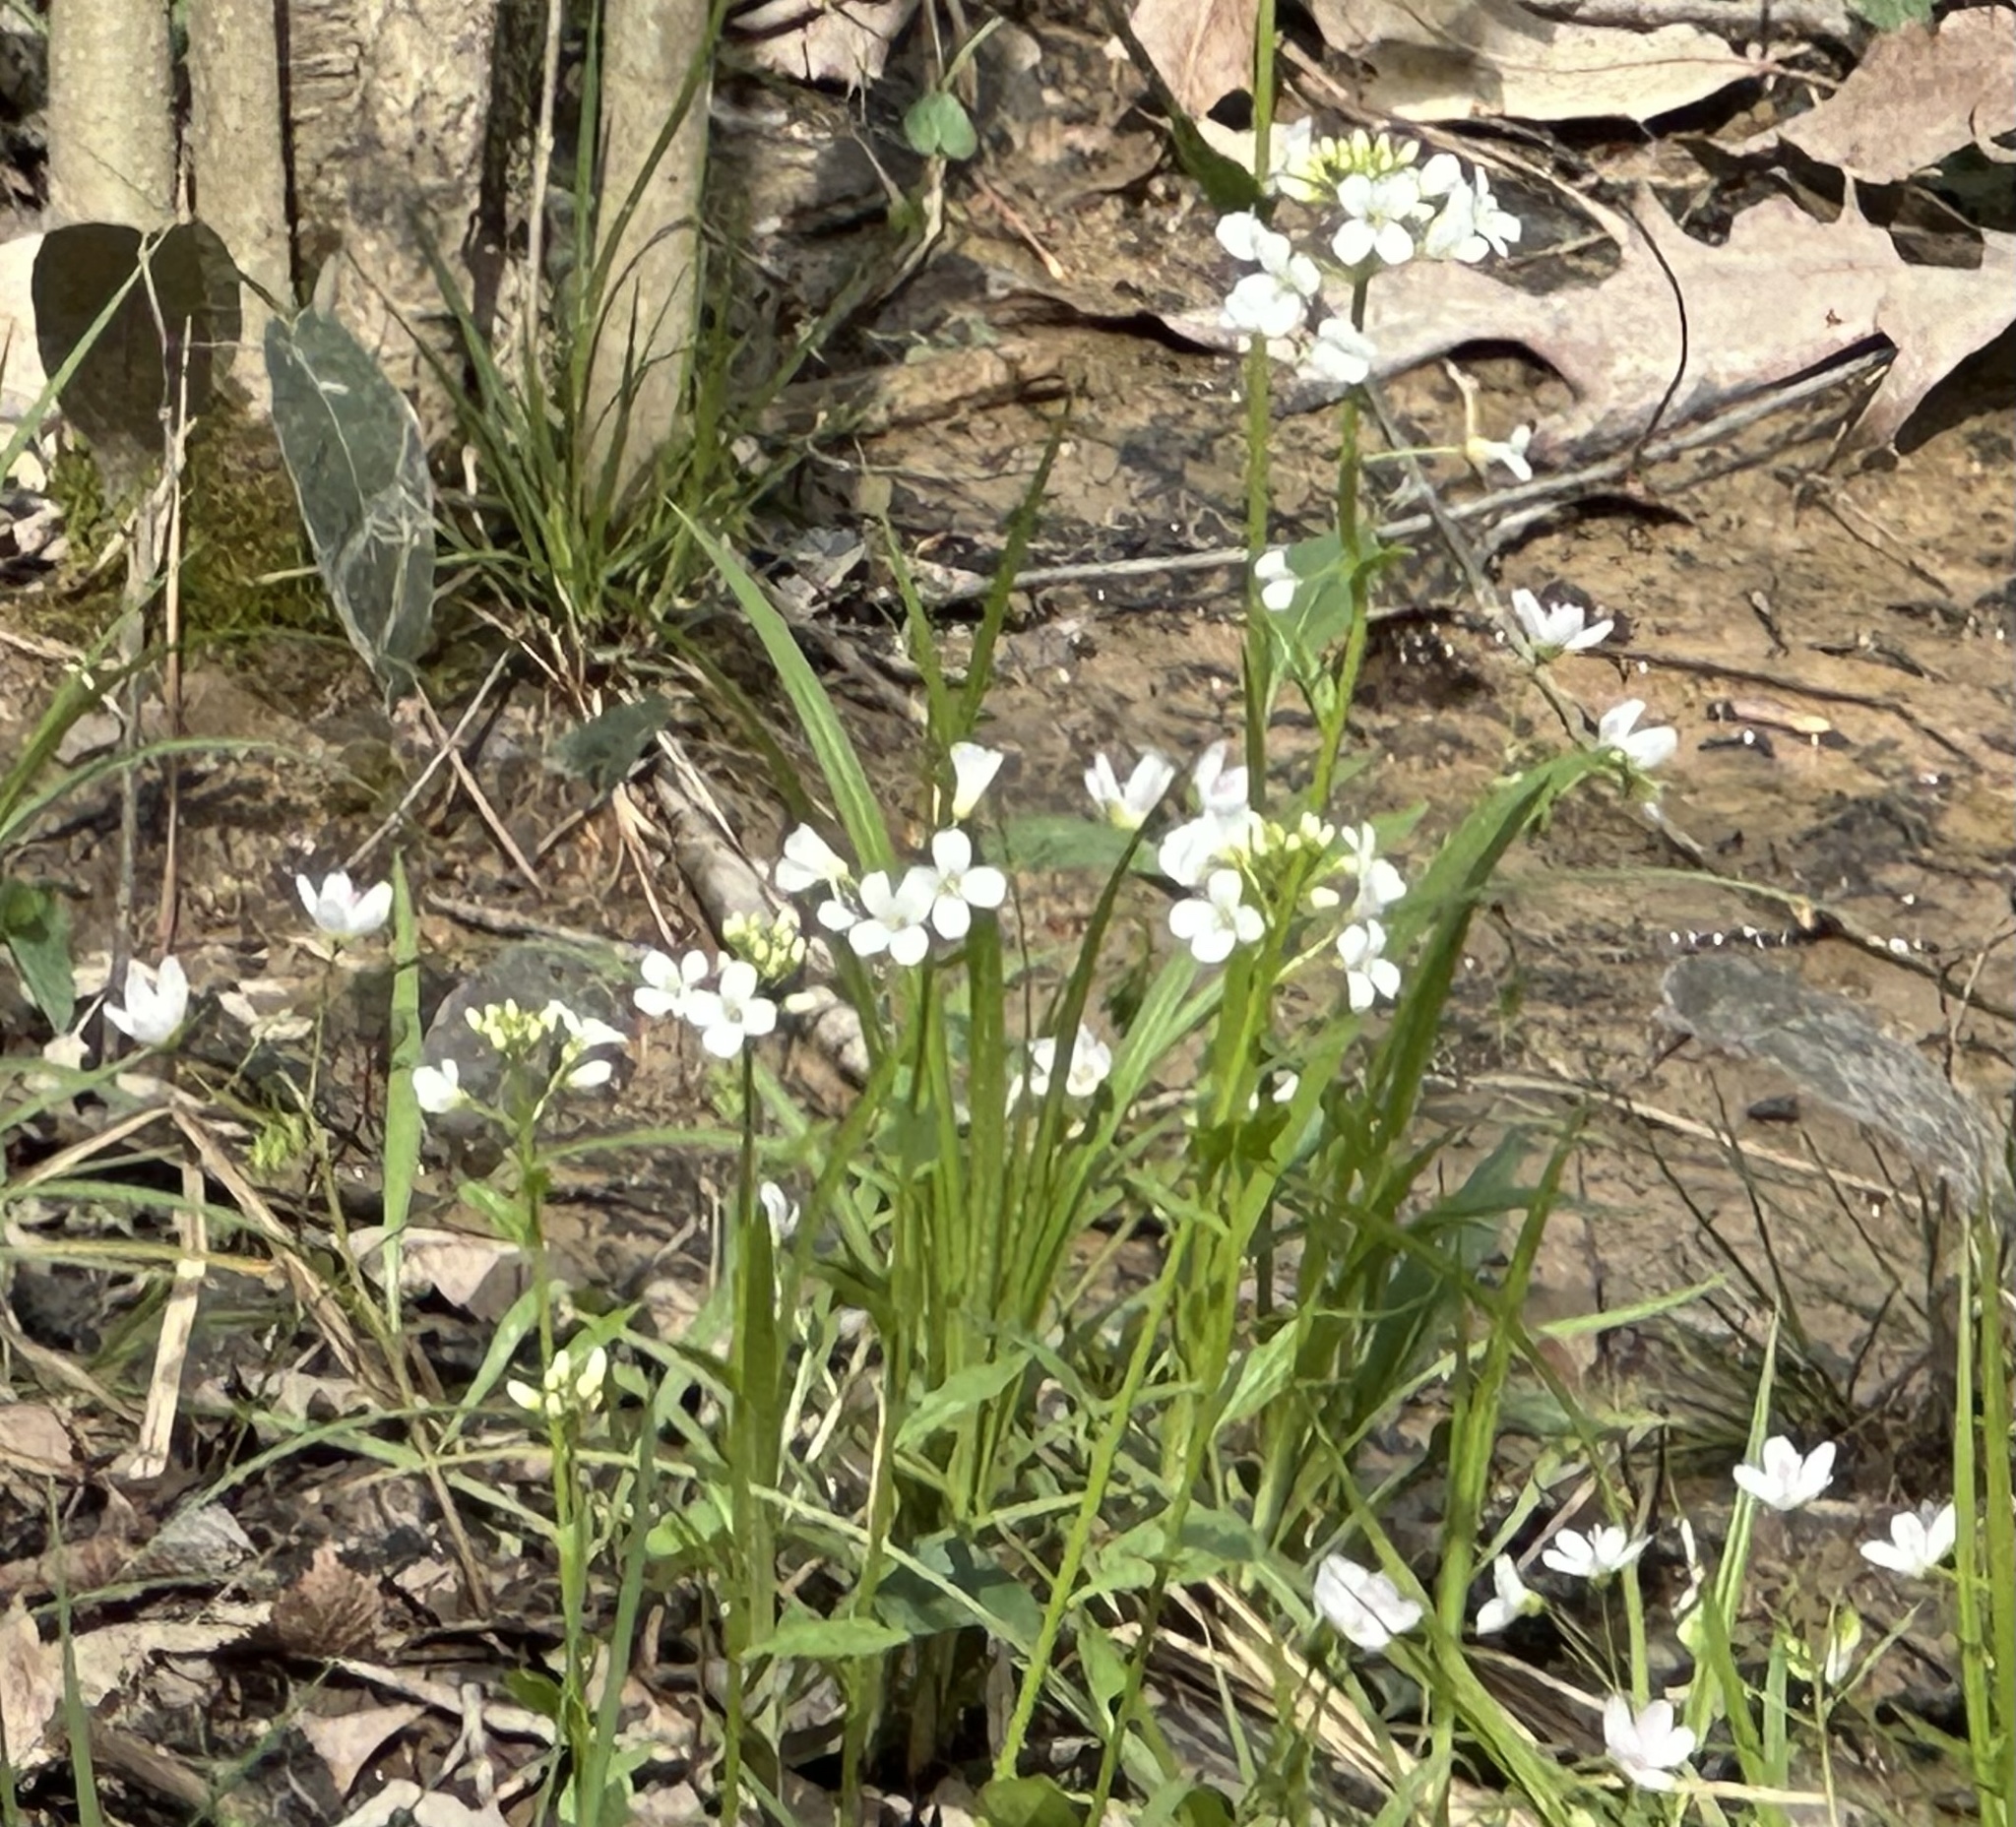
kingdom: Plantae
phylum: Tracheophyta
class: Magnoliopsida
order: Brassicales
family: Brassicaceae
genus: Cardamine
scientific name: Cardamine bulbosa
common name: Spring cress
